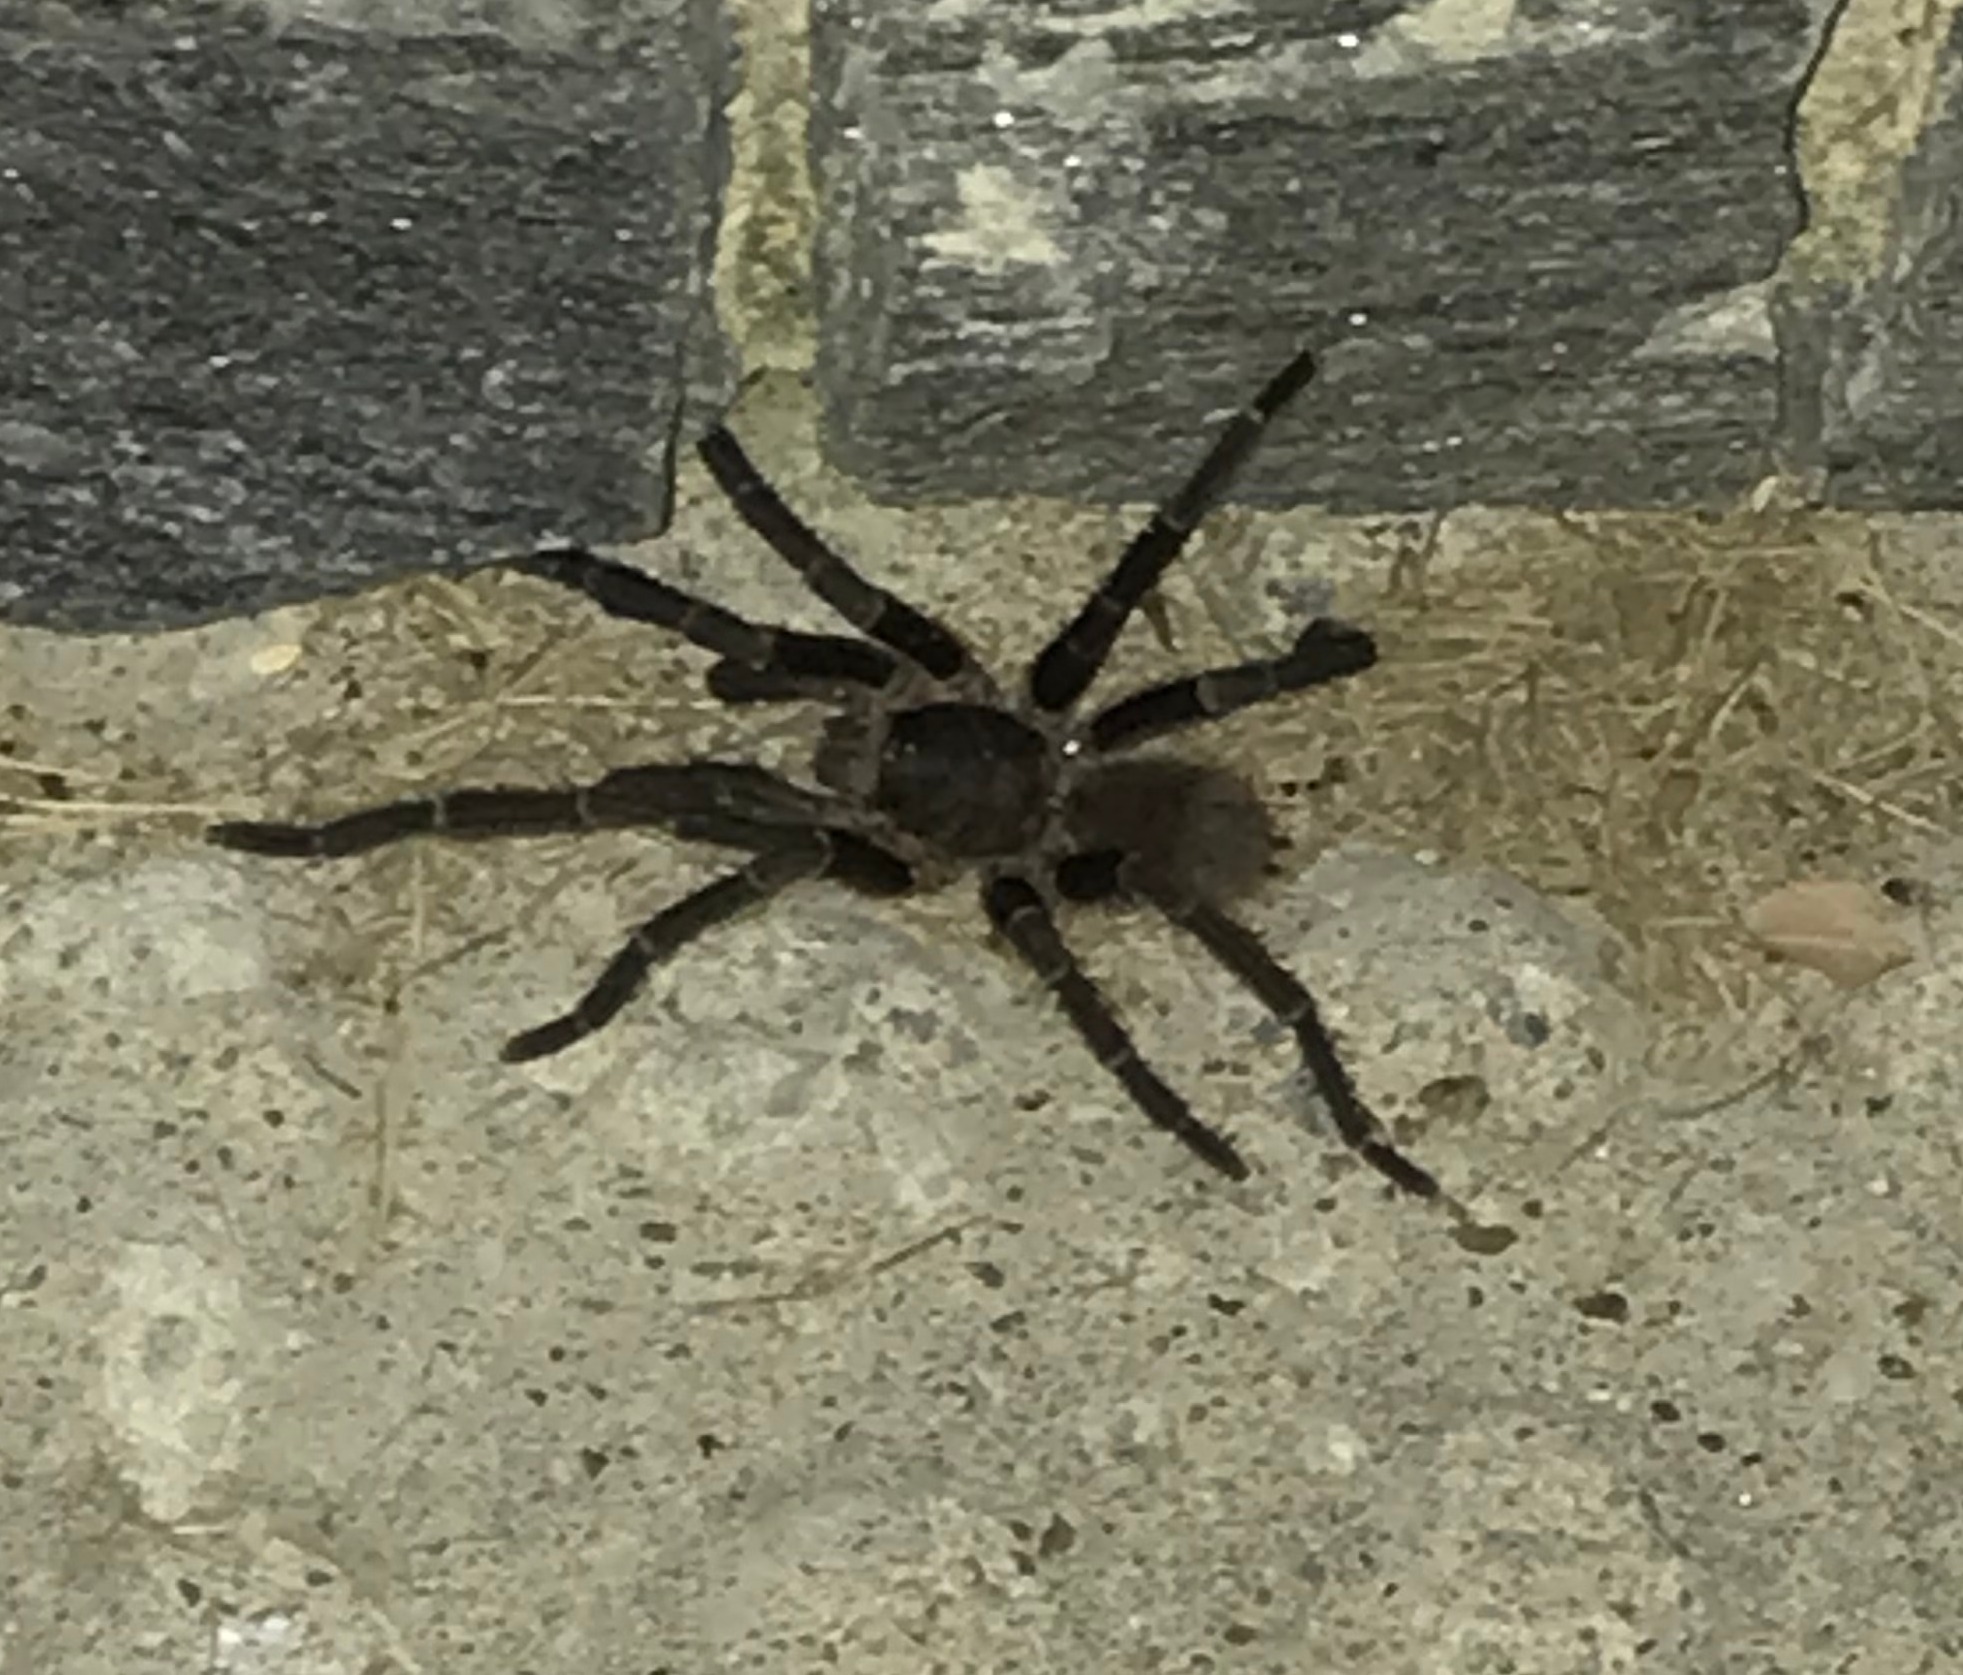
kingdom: Animalia
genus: Crypsidromus
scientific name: Crypsidromus
